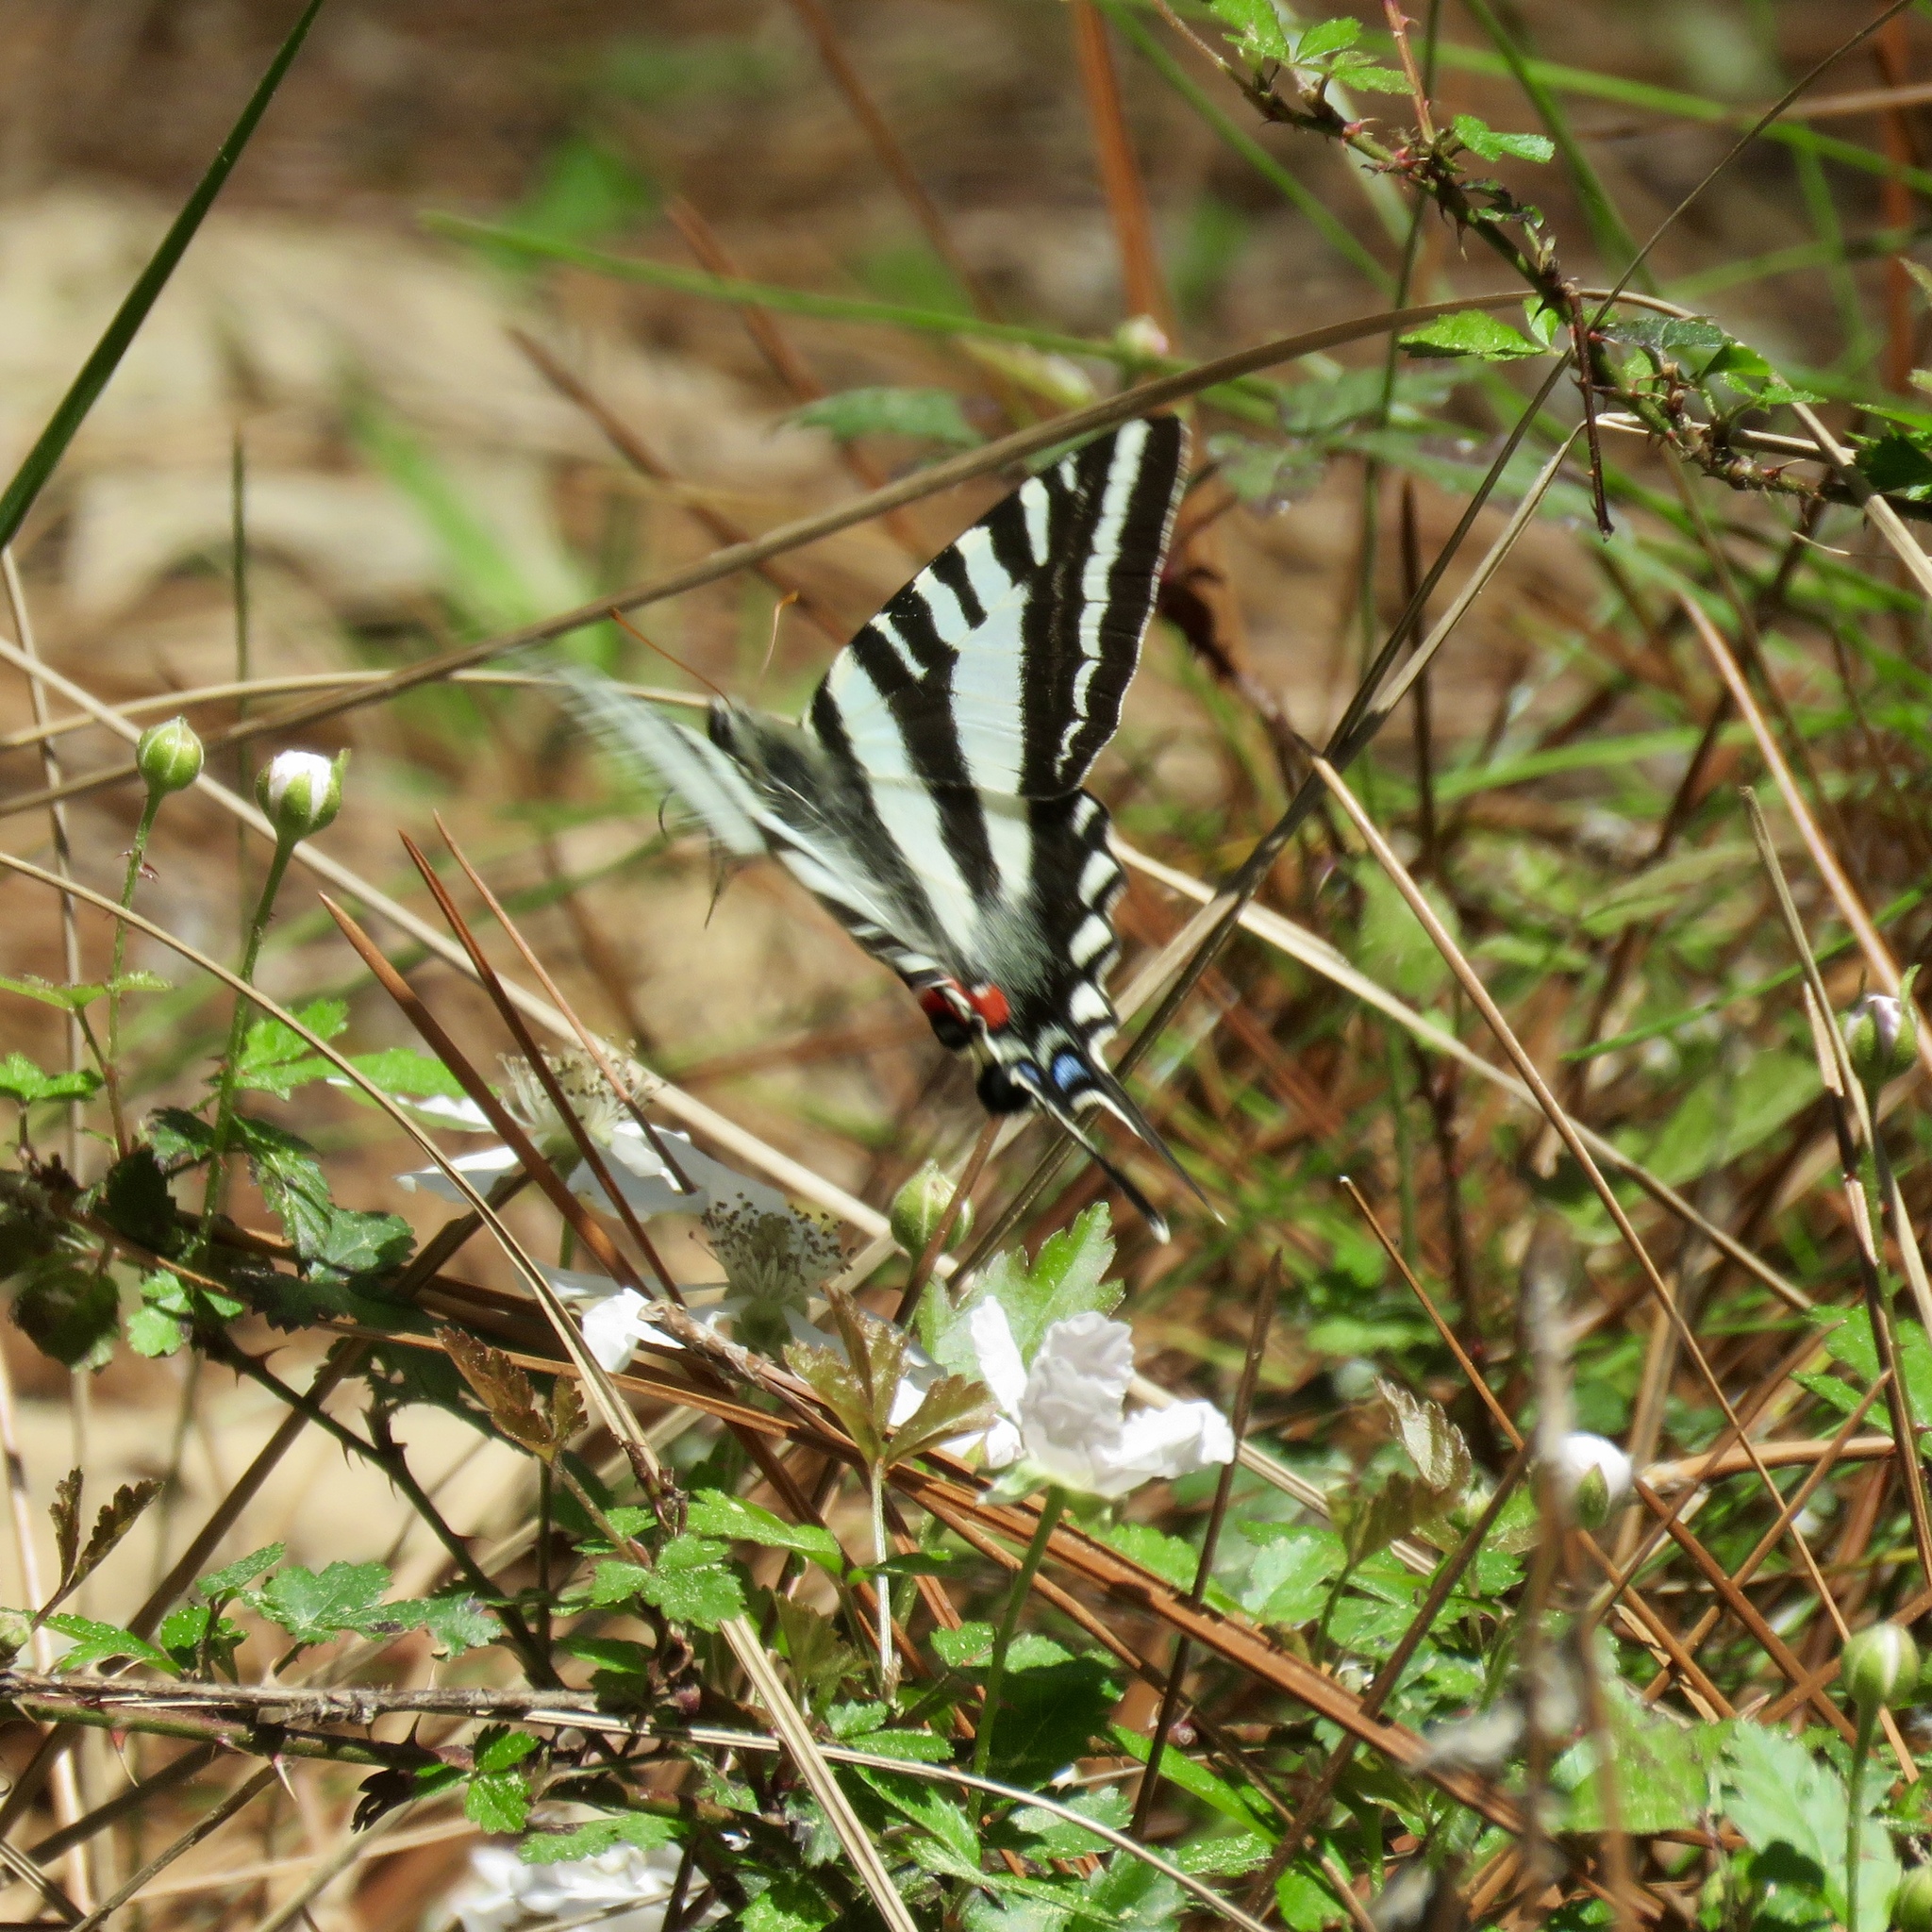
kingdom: Animalia
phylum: Arthropoda
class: Insecta
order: Lepidoptera
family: Papilionidae
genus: Protographium
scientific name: Protographium marcellus
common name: Zebra swallowtail
